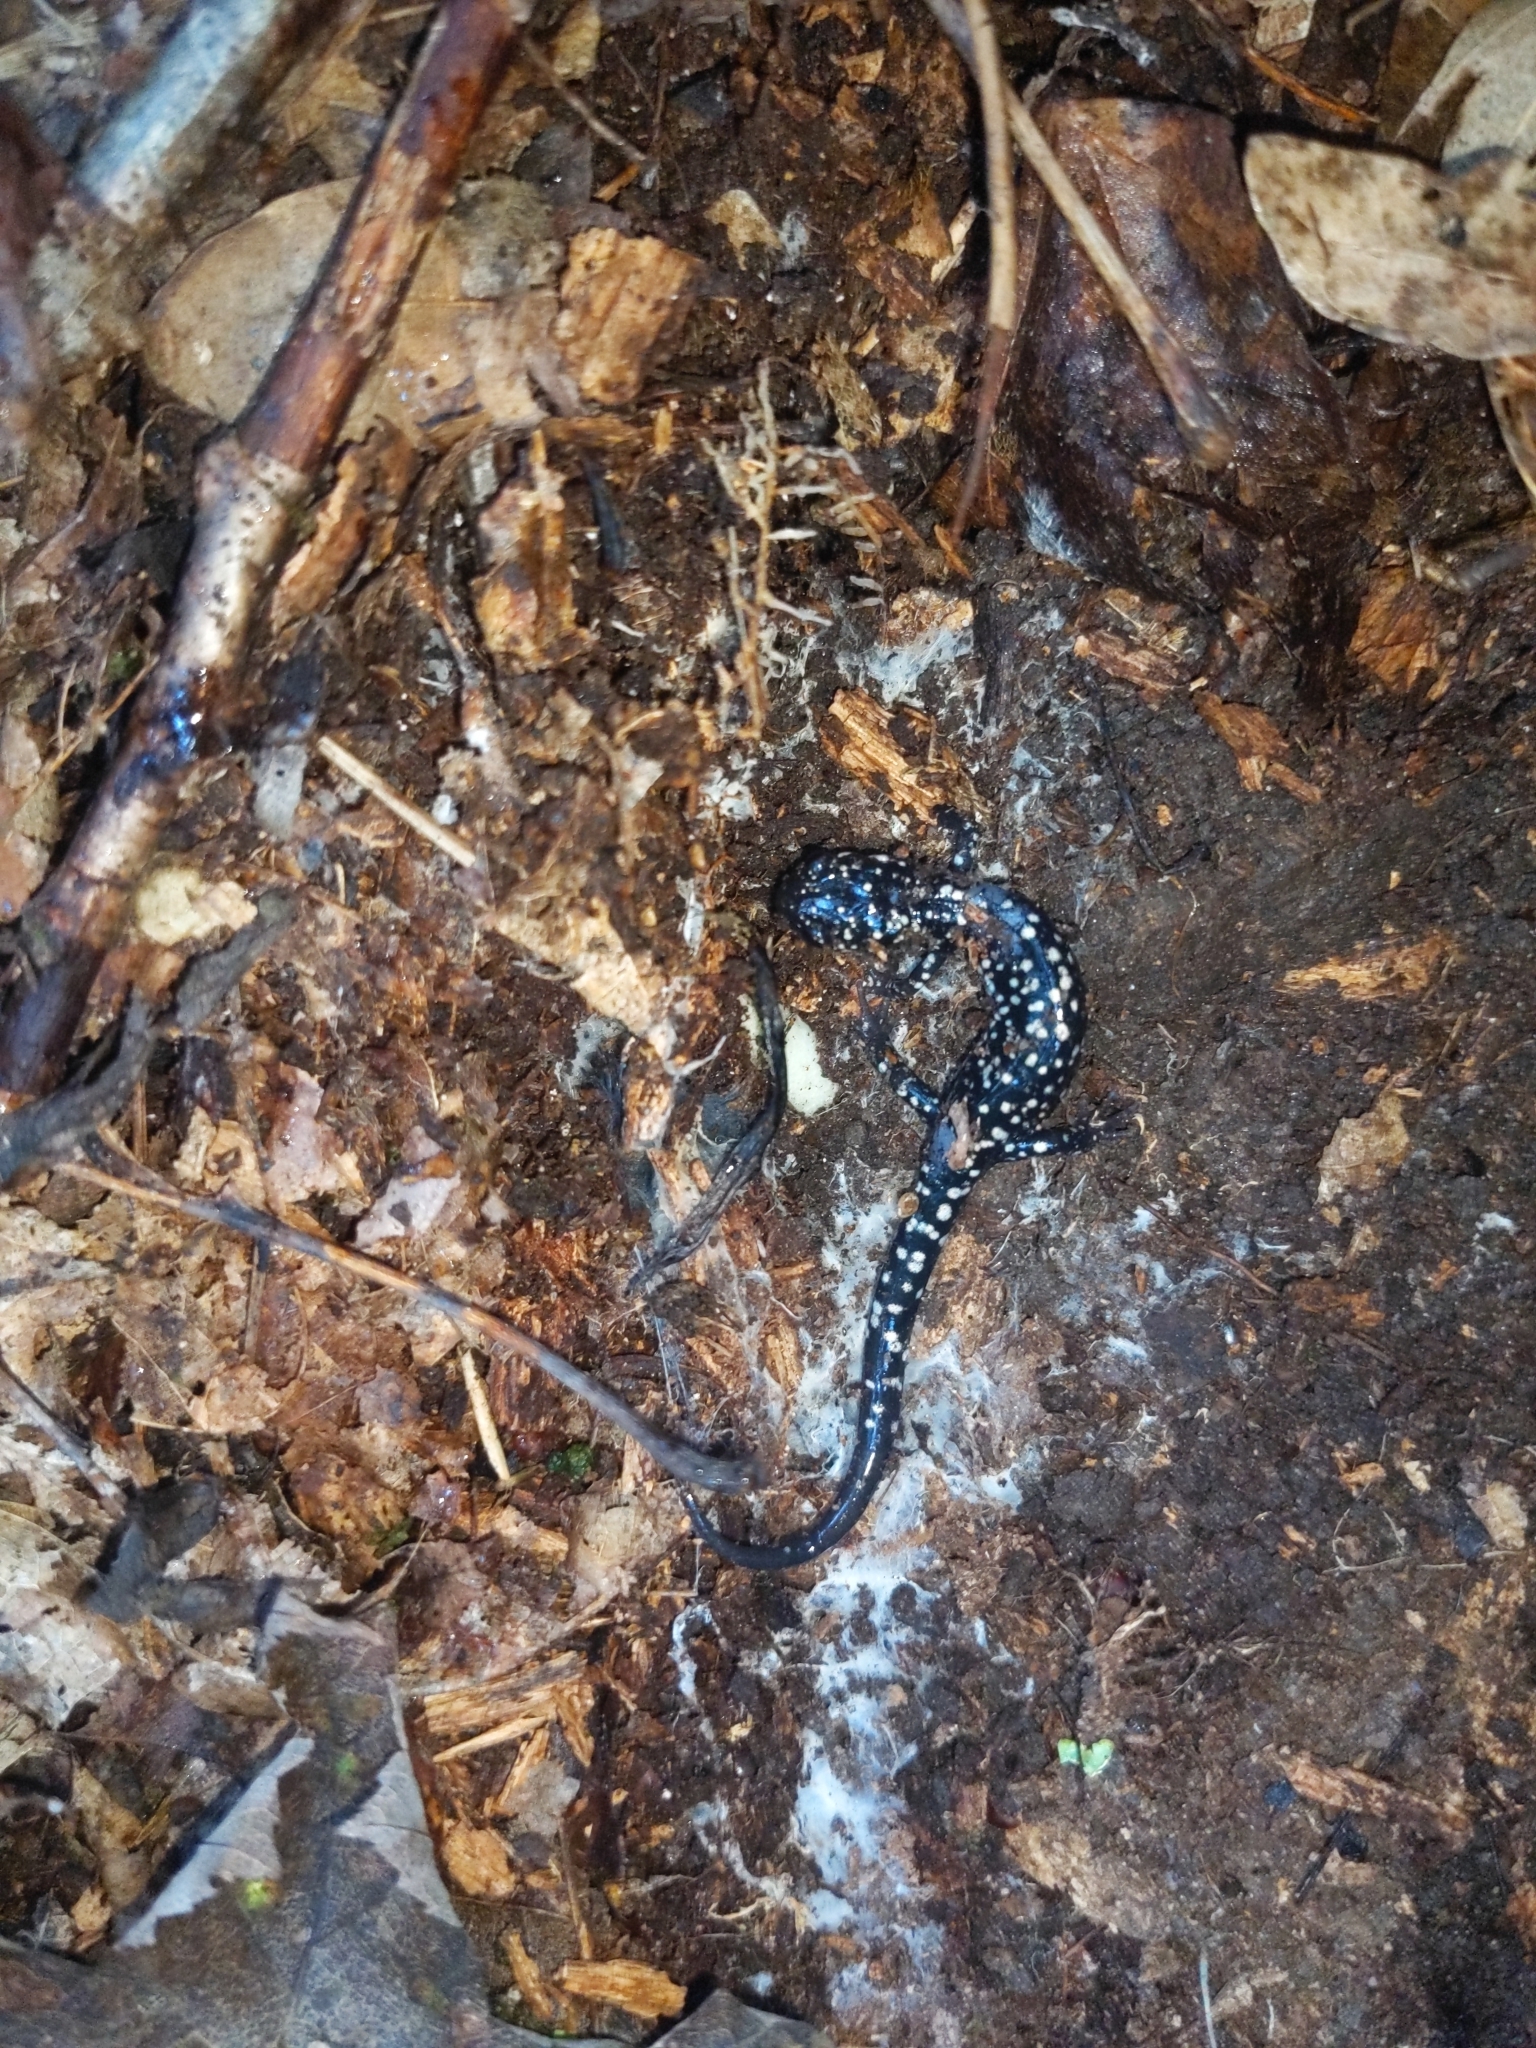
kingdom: Animalia
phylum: Chordata
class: Amphibia
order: Caudata
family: Plethodontidae
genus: Plethodon
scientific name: Plethodon glutinosus
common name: Northern slimy salamander
